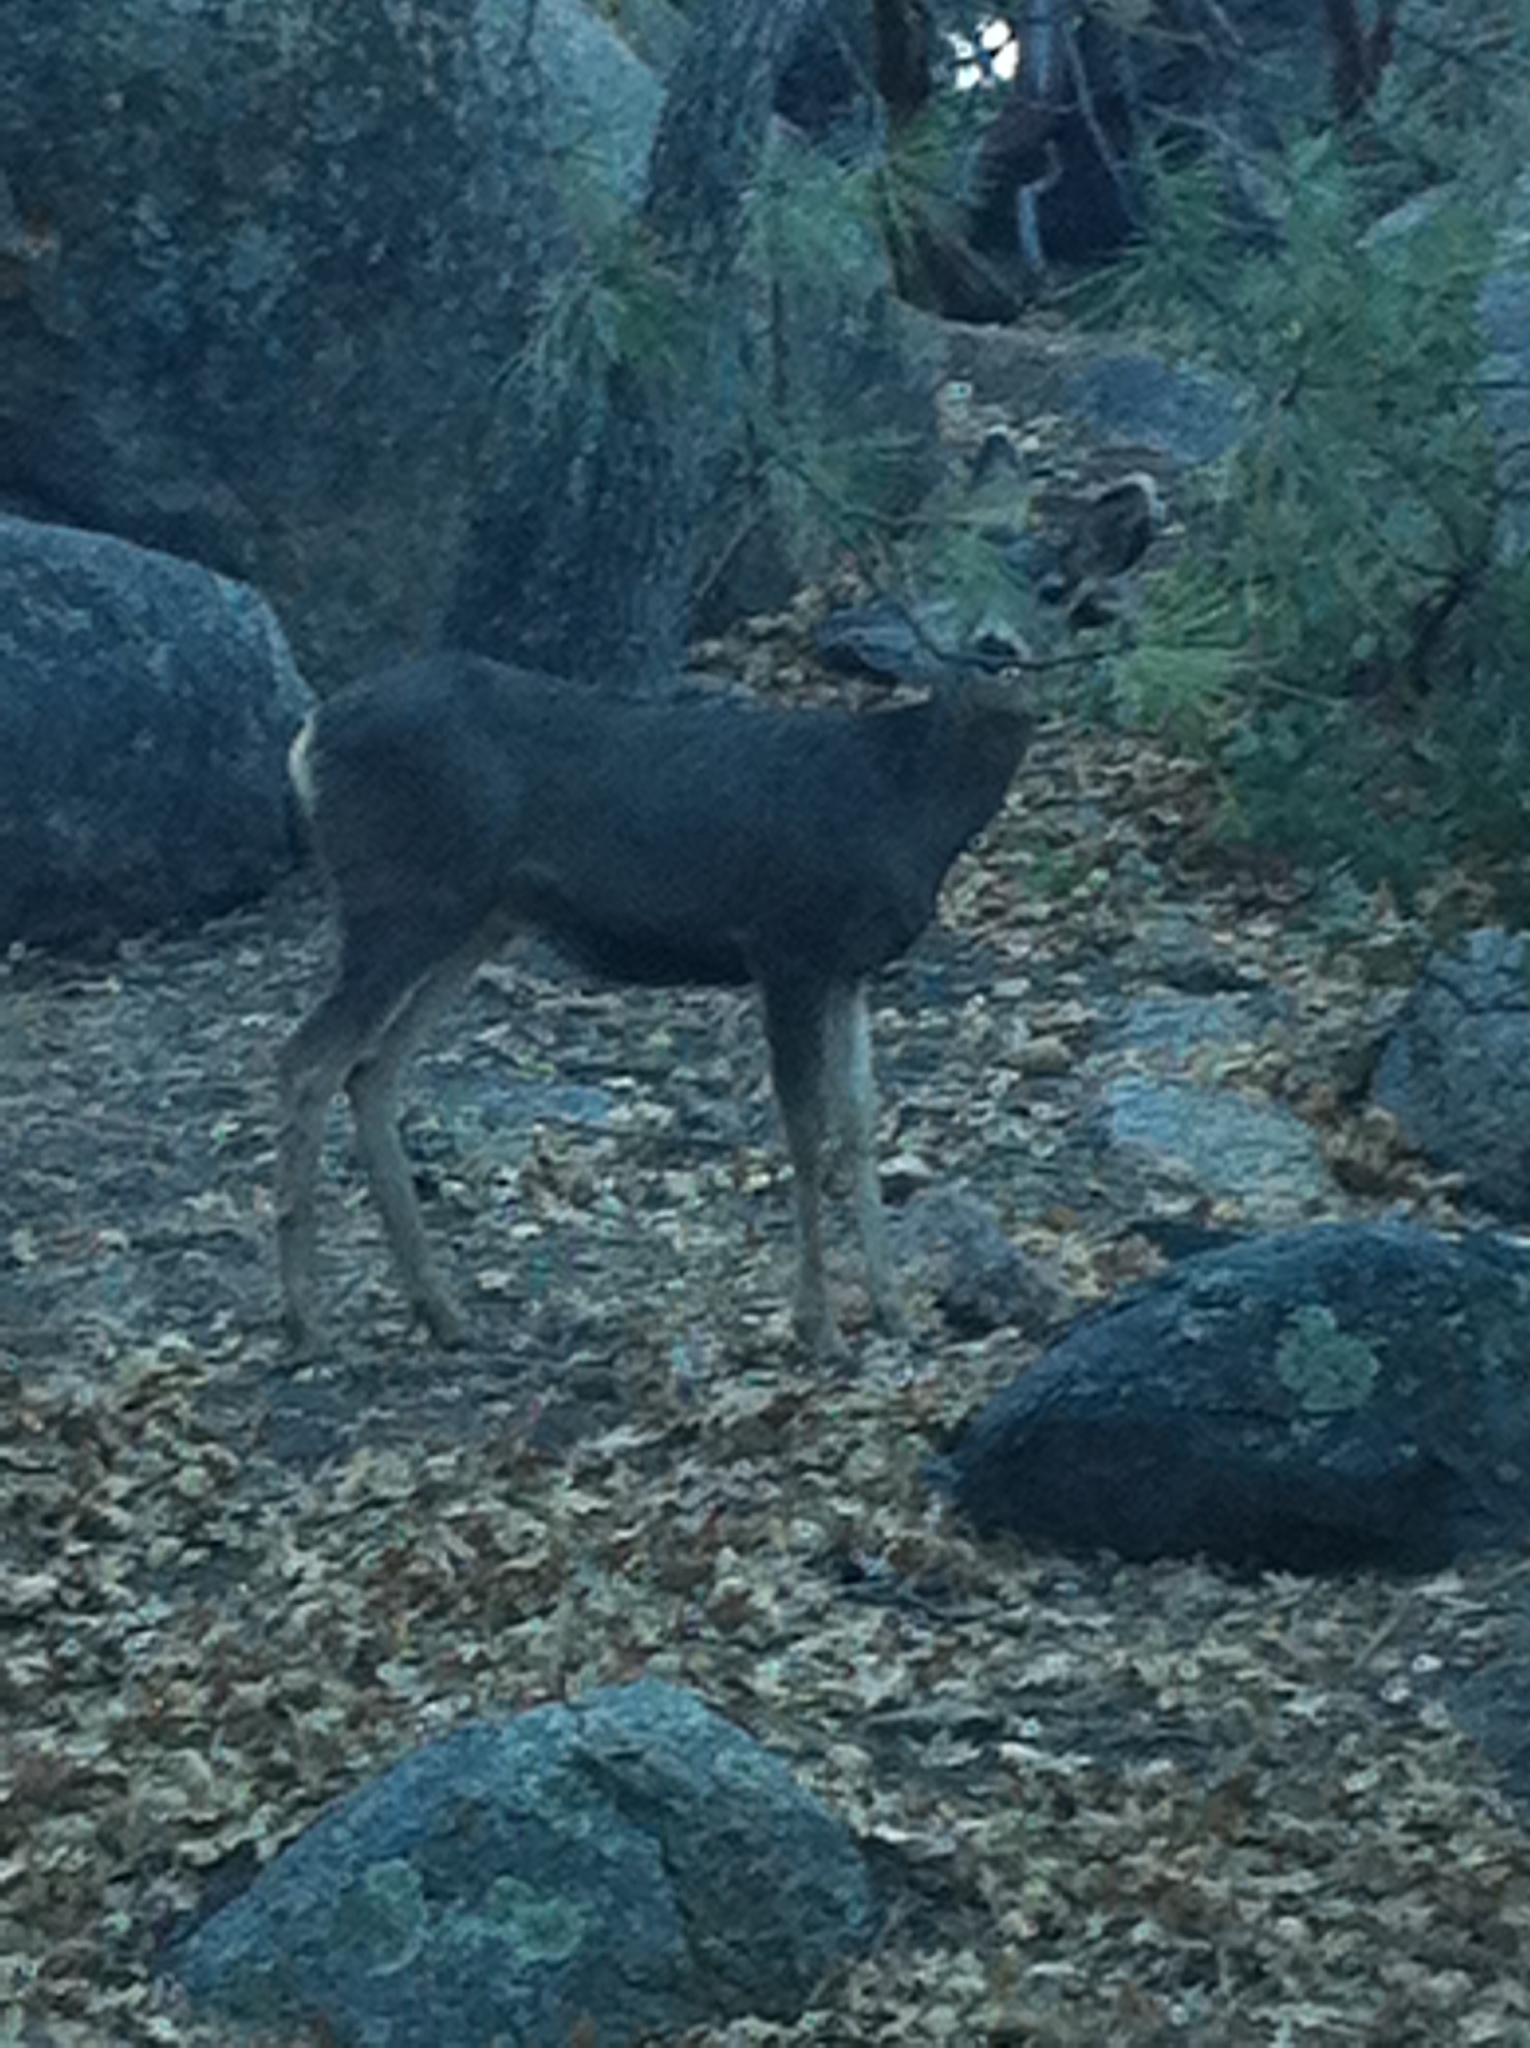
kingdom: Animalia
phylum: Chordata
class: Mammalia
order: Artiodactyla
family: Cervidae
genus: Odocoileus
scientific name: Odocoileus hemionus
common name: Mule deer
